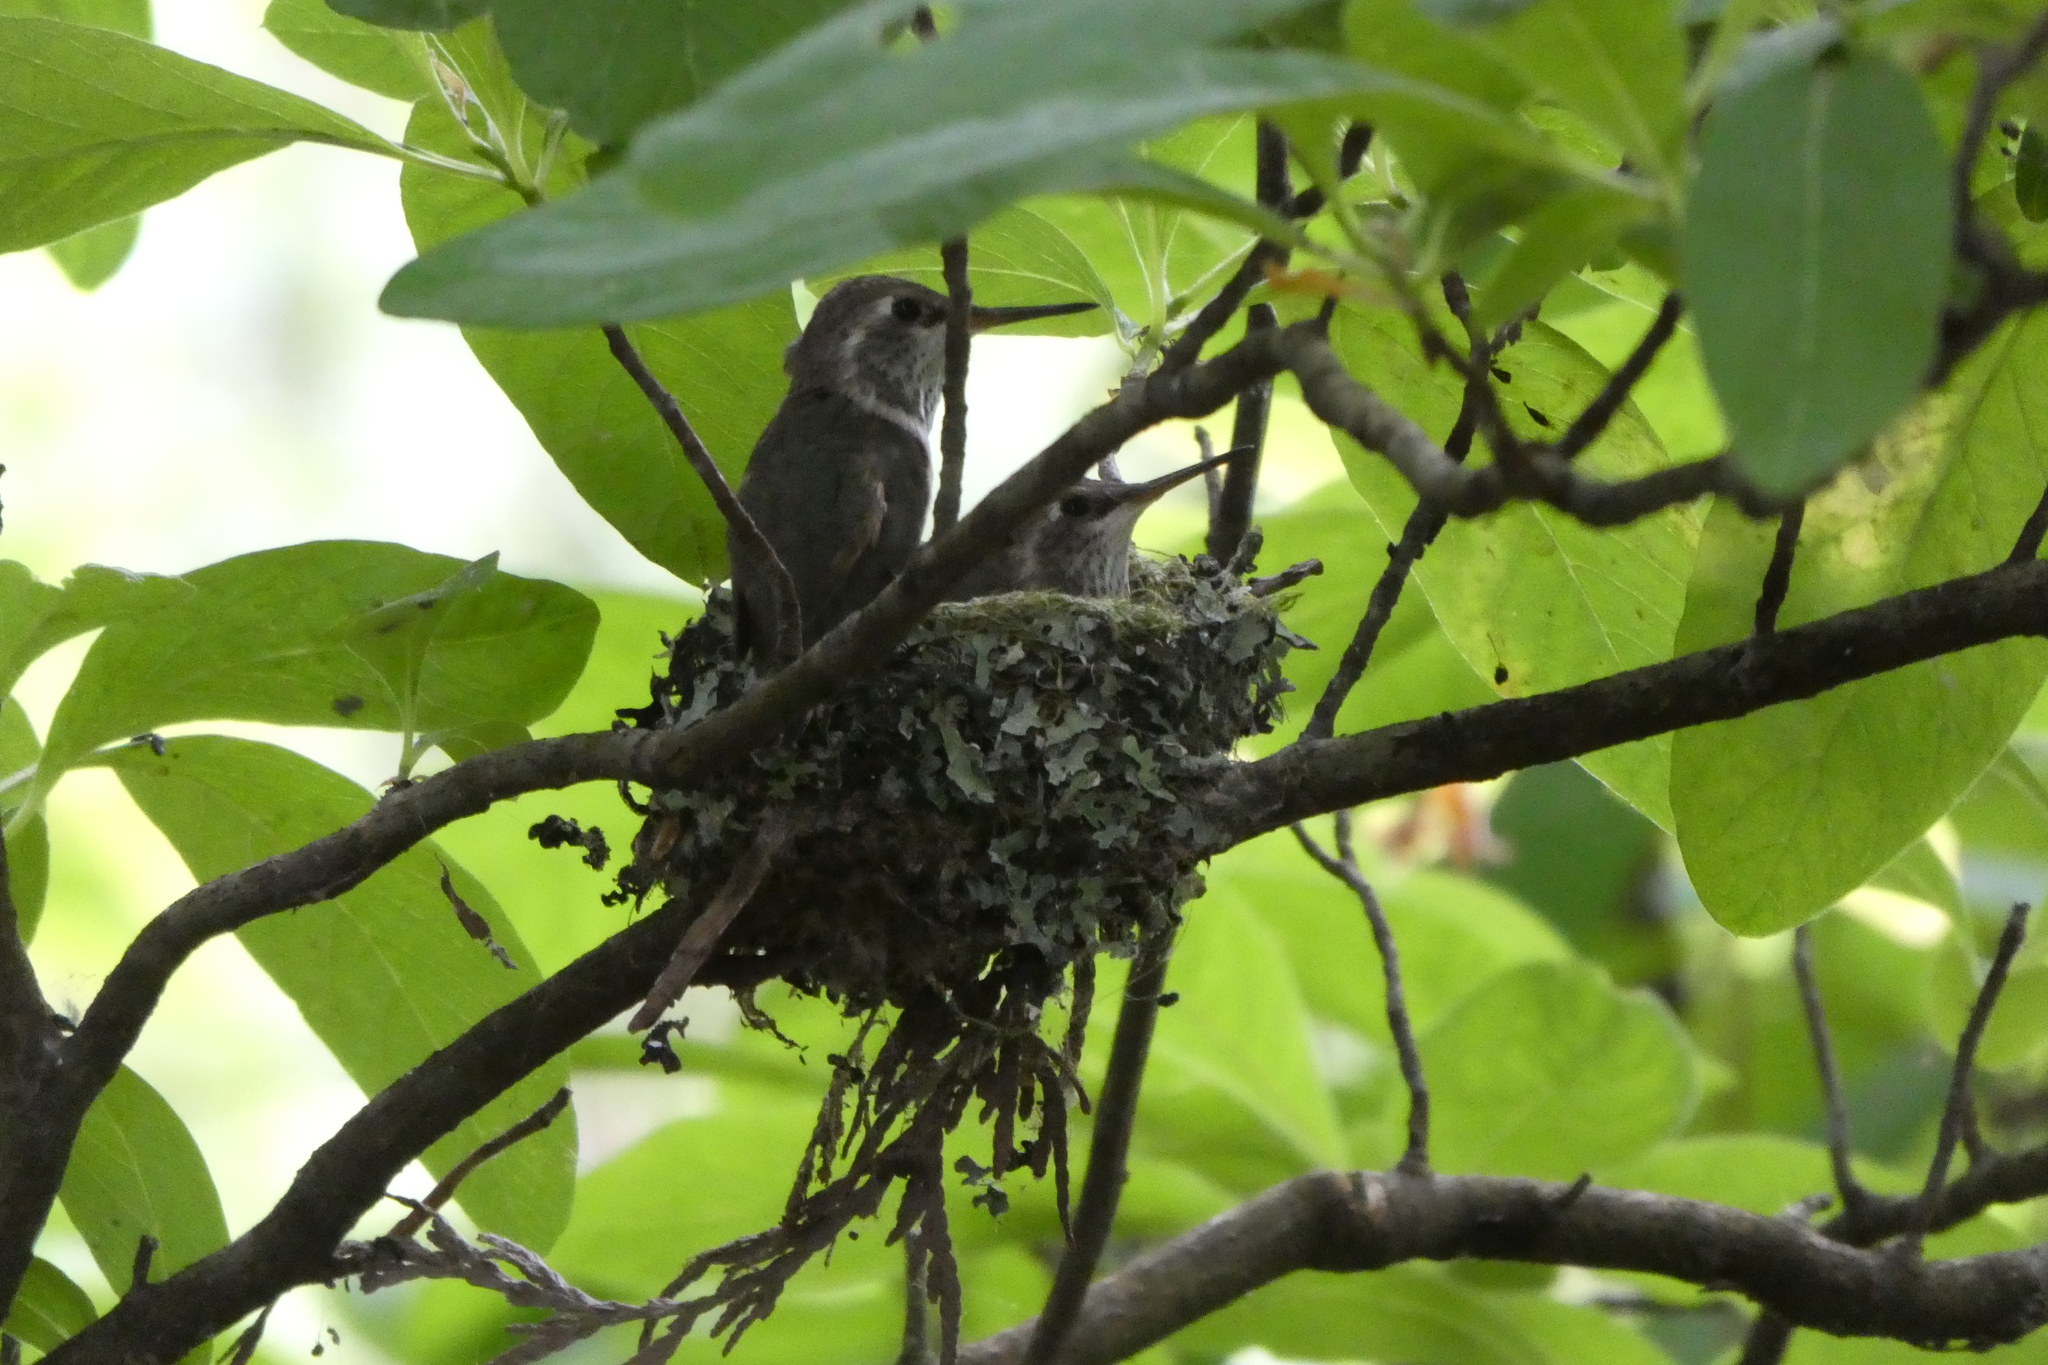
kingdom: Animalia
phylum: Chordata
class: Aves
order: Apodiformes
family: Trochilidae
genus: Selasphorus
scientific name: Selasphorus rufus
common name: Rufous hummingbird
